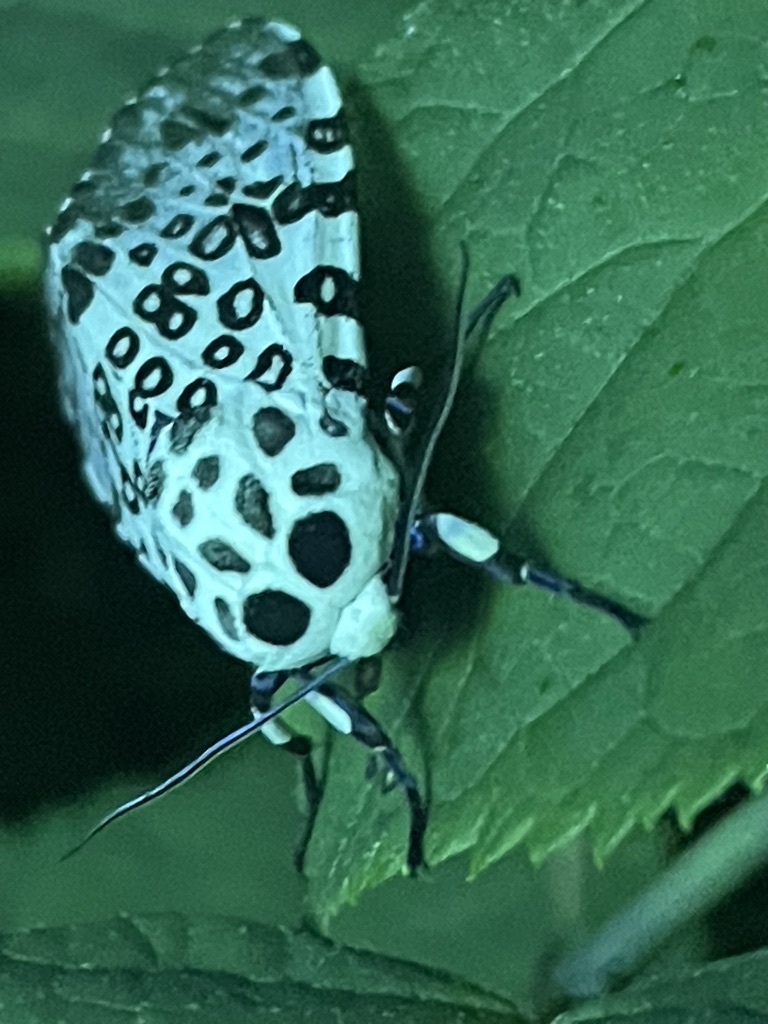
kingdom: Animalia
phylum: Arthropoda
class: Insecta
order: Lepidoptera
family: Erebidae
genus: Hypercompe
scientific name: Hypercompe scribonia
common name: Giant leopard moth
